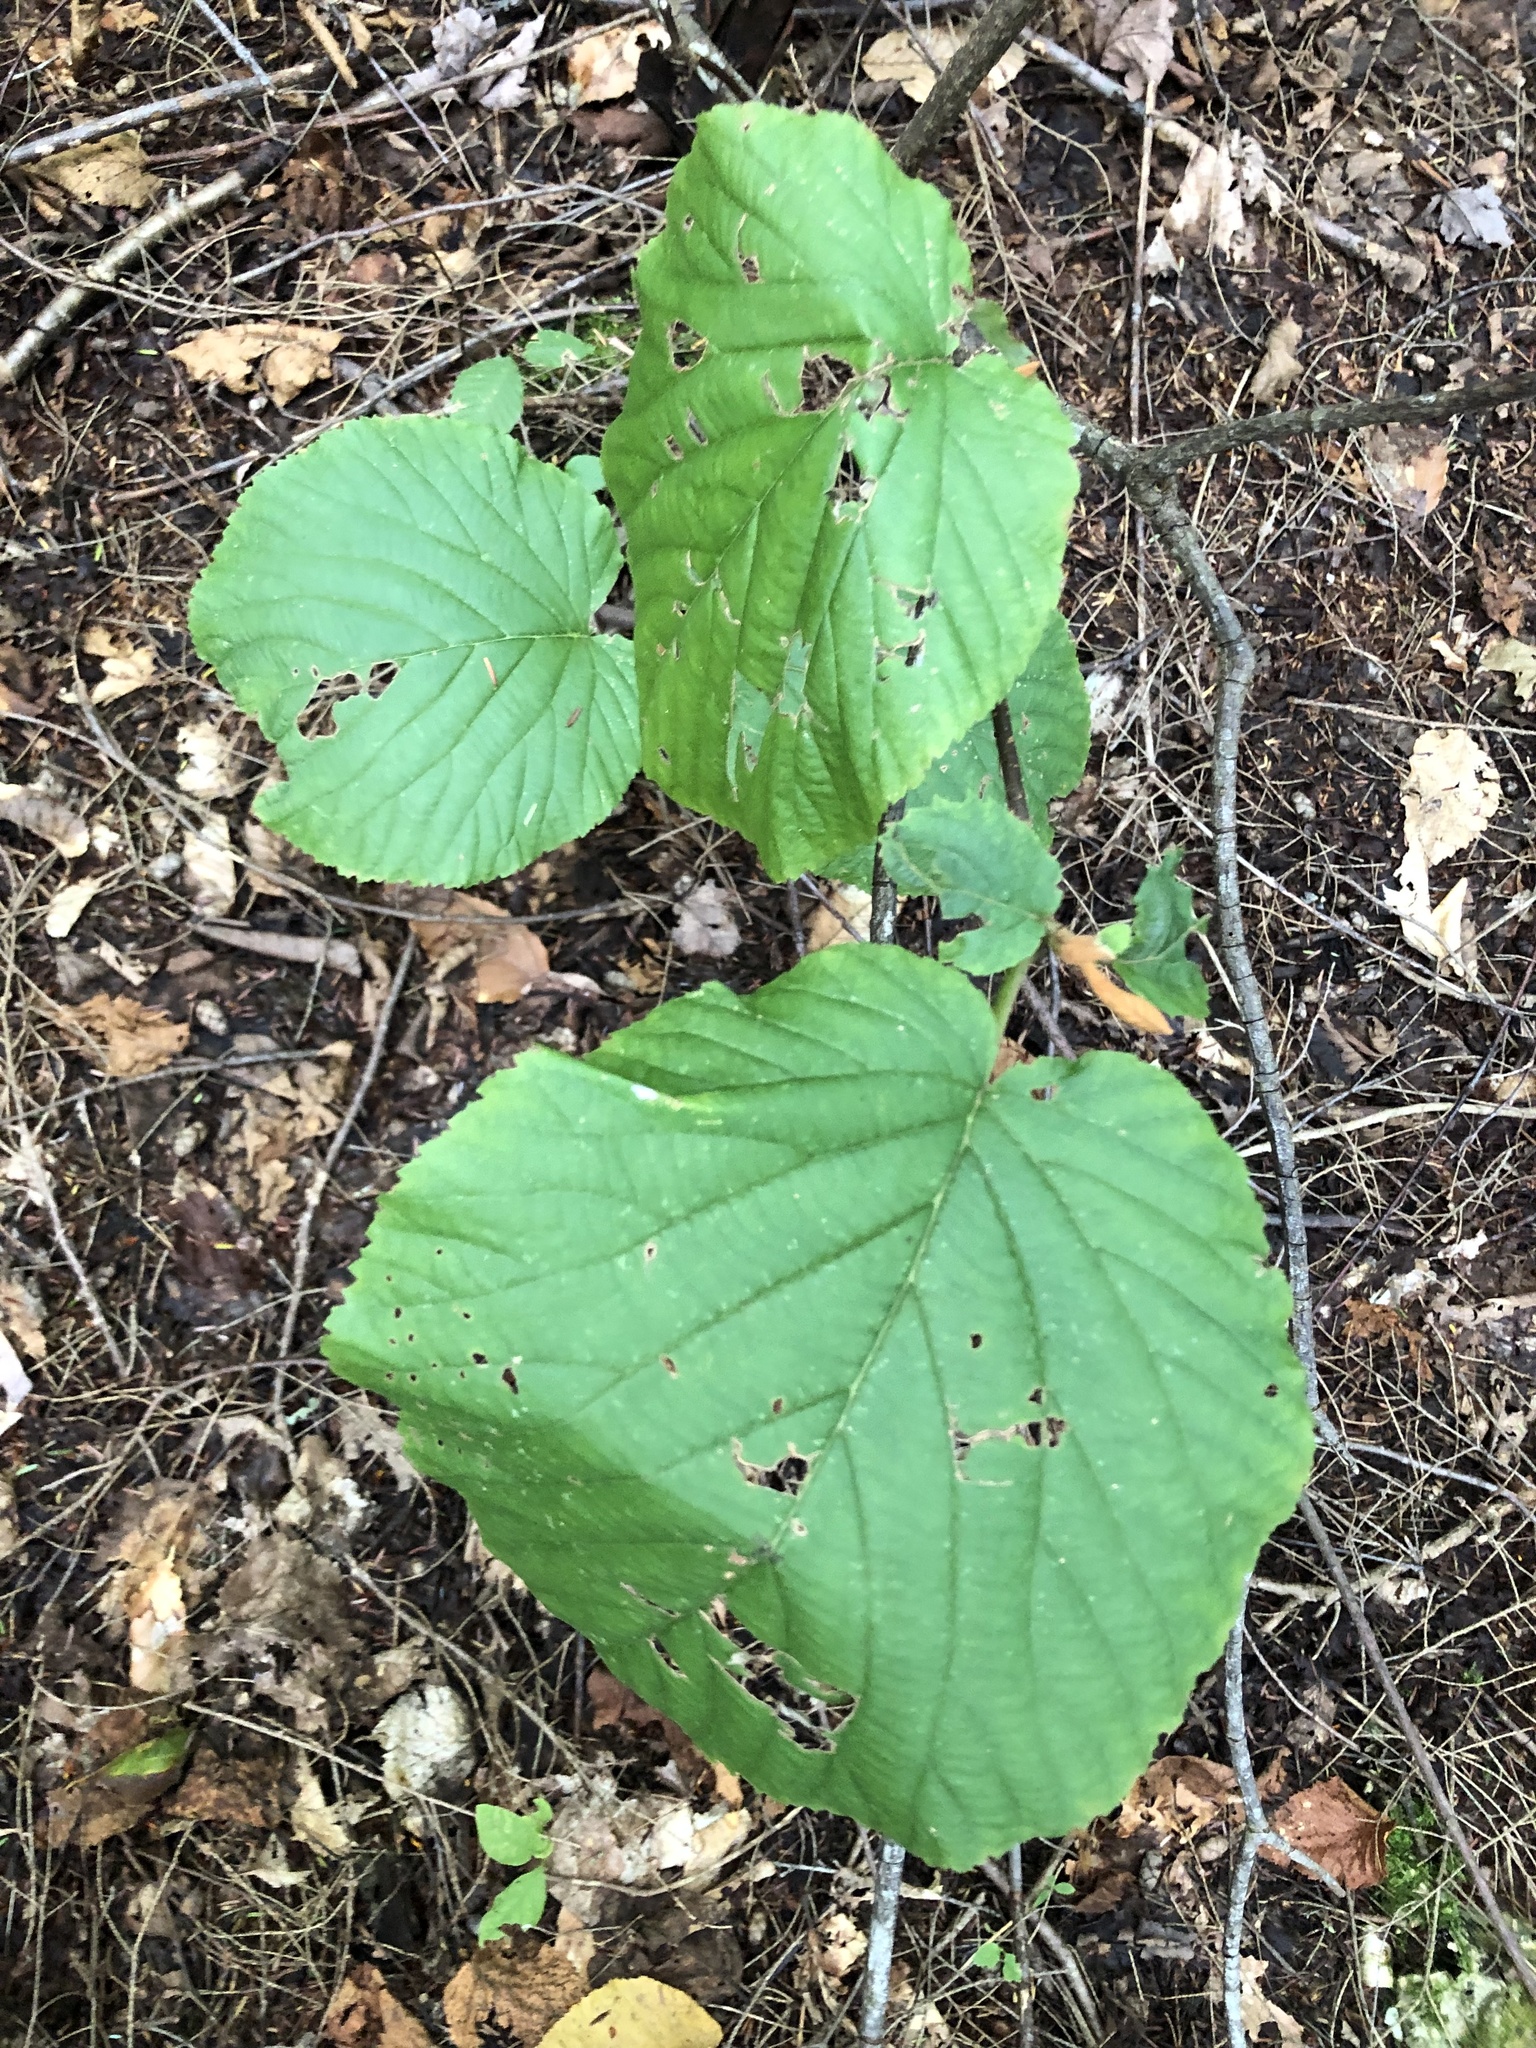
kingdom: Plantae
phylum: Tracheophyta
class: Magnoliopsida
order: Dipsacales
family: Viburnaceae
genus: Viburnum
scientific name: Viburnum lantanoides
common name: Hobblebush
